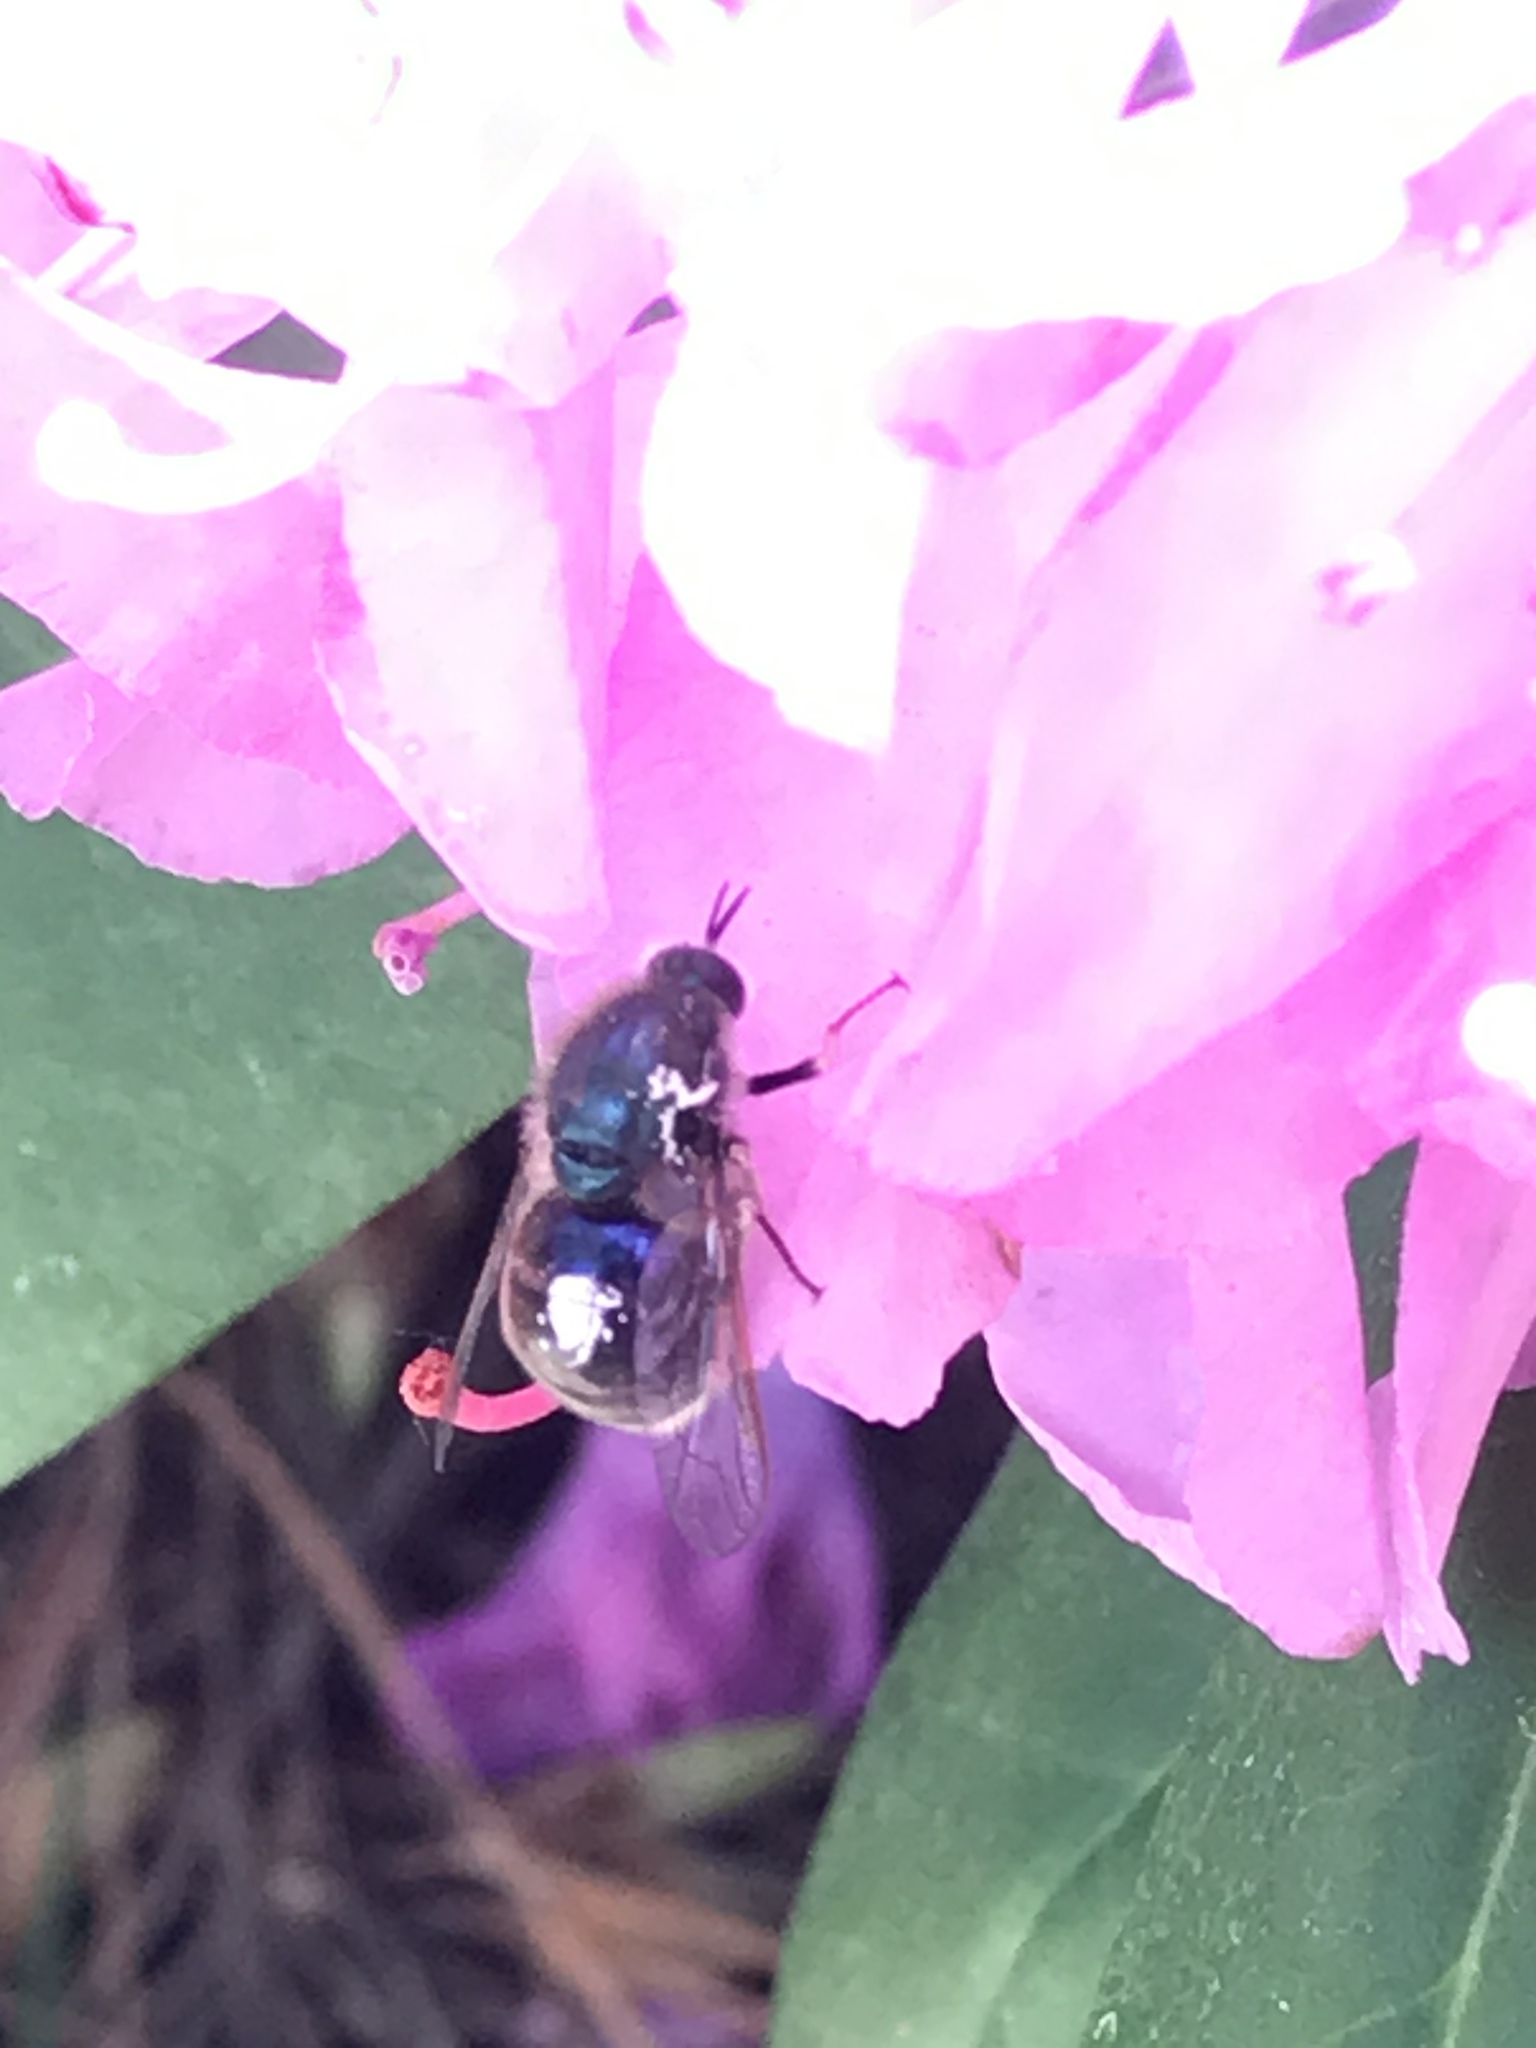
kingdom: Animalia
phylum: Arthropoda
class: Insecta
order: Diptera
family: Acroceridae
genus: Eulonchus
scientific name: Eulonchus tristis
